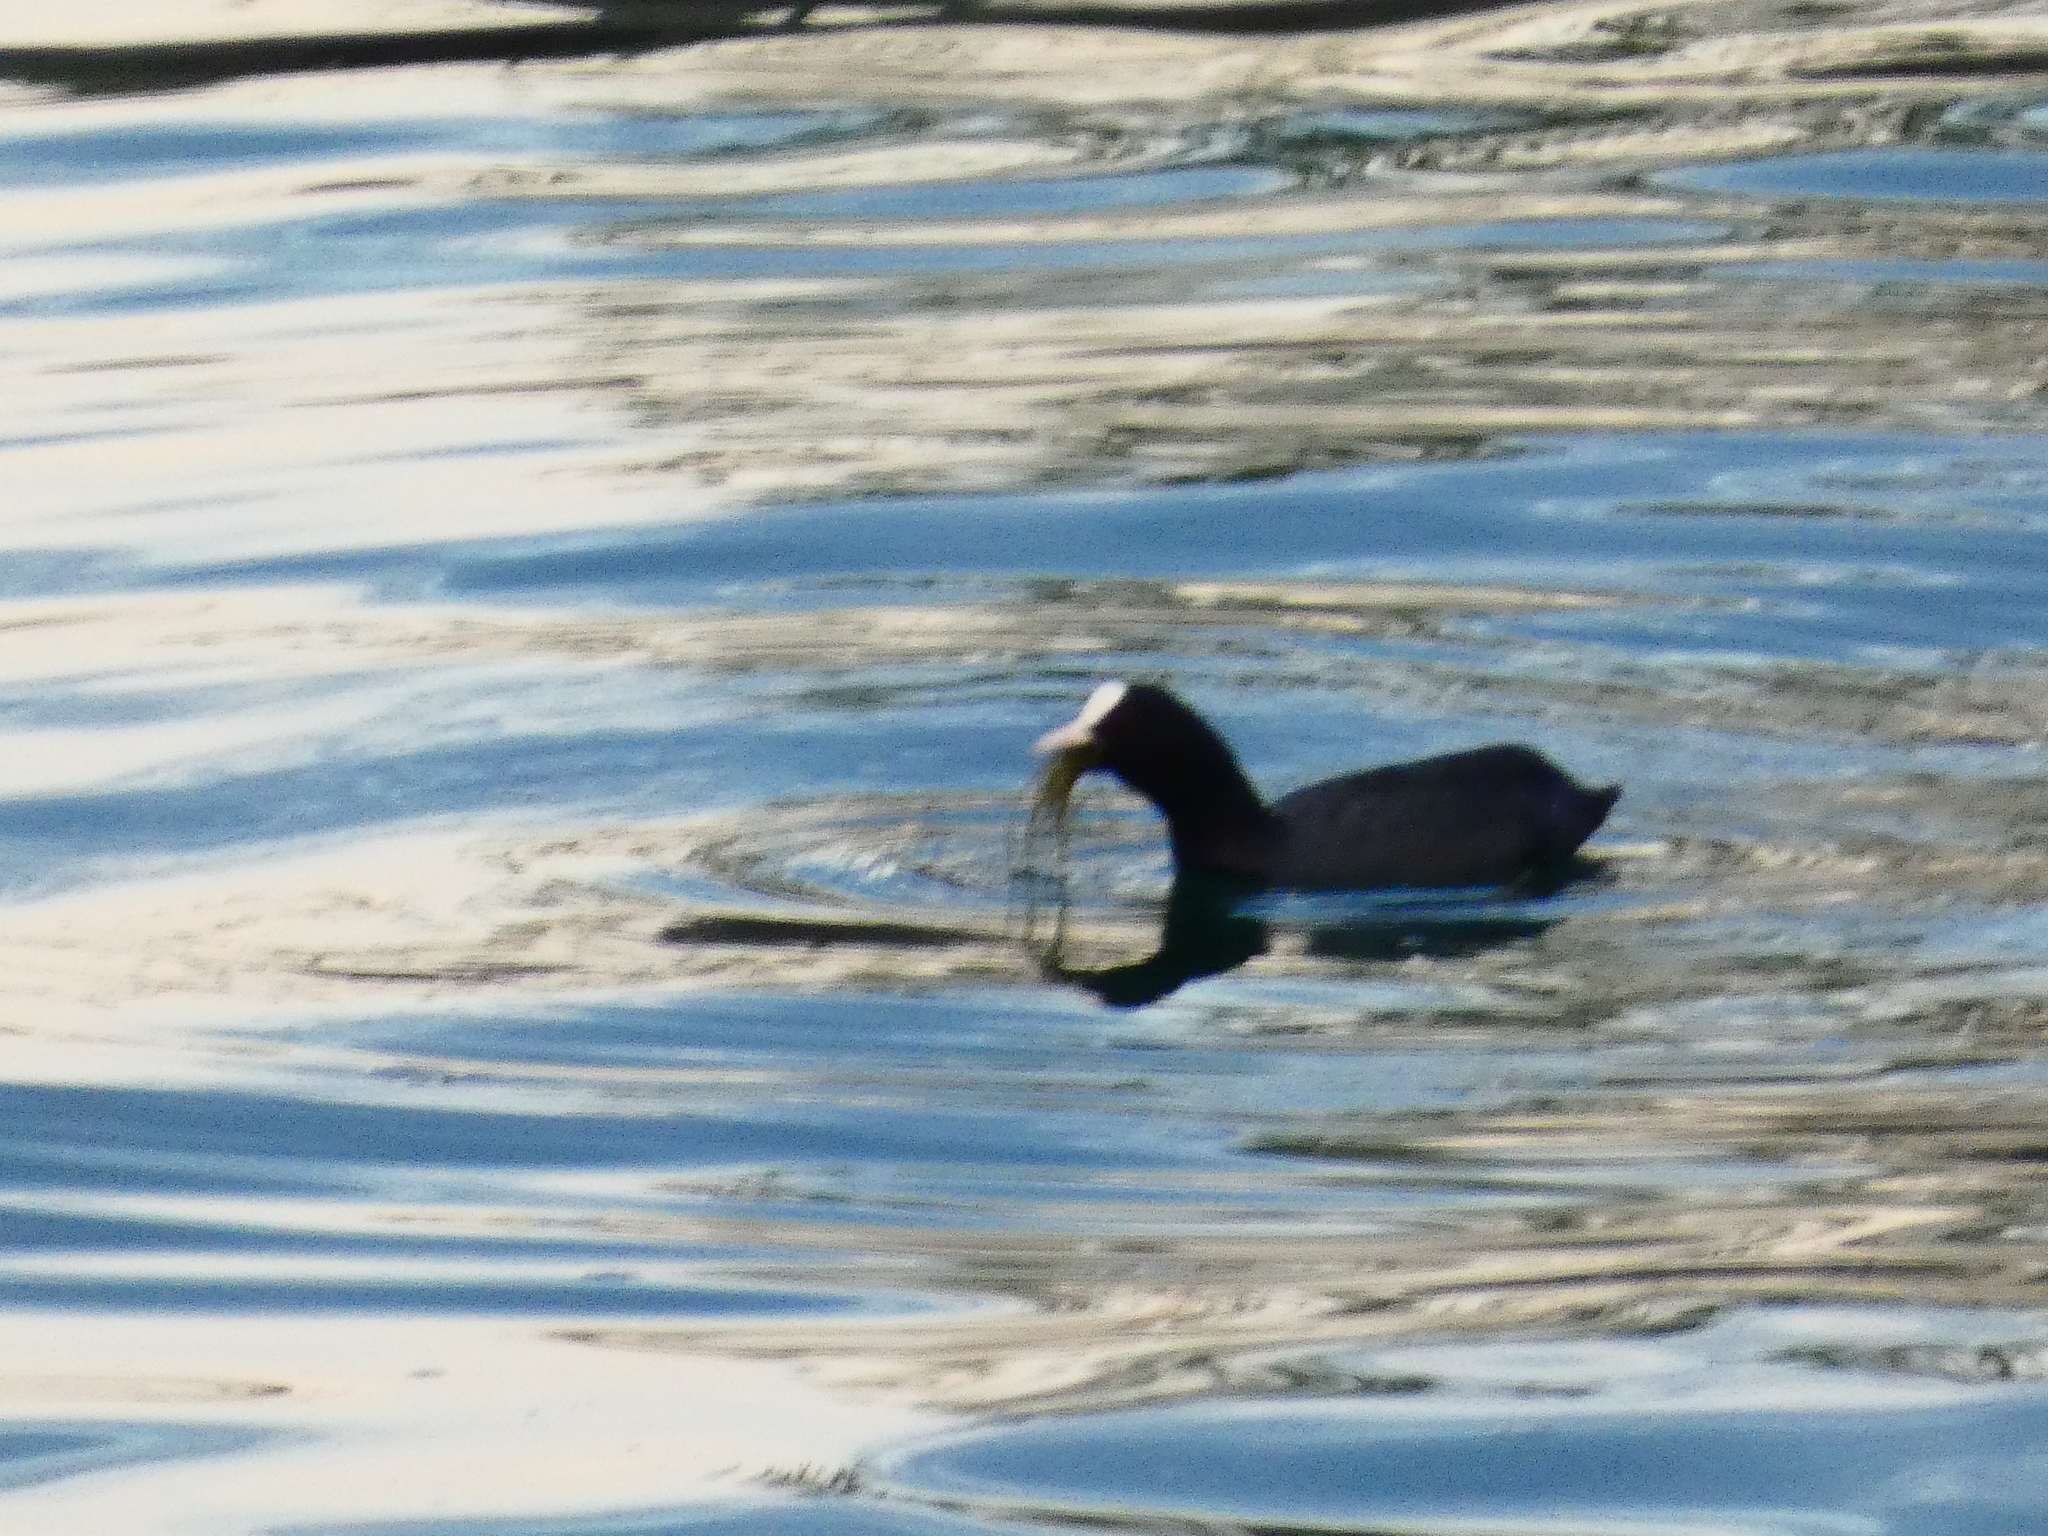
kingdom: Animalia
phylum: Chordata
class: Aves
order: Gruiformes
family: Rallidae
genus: Fulica
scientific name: Fulica atra
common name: Eurasian coot
